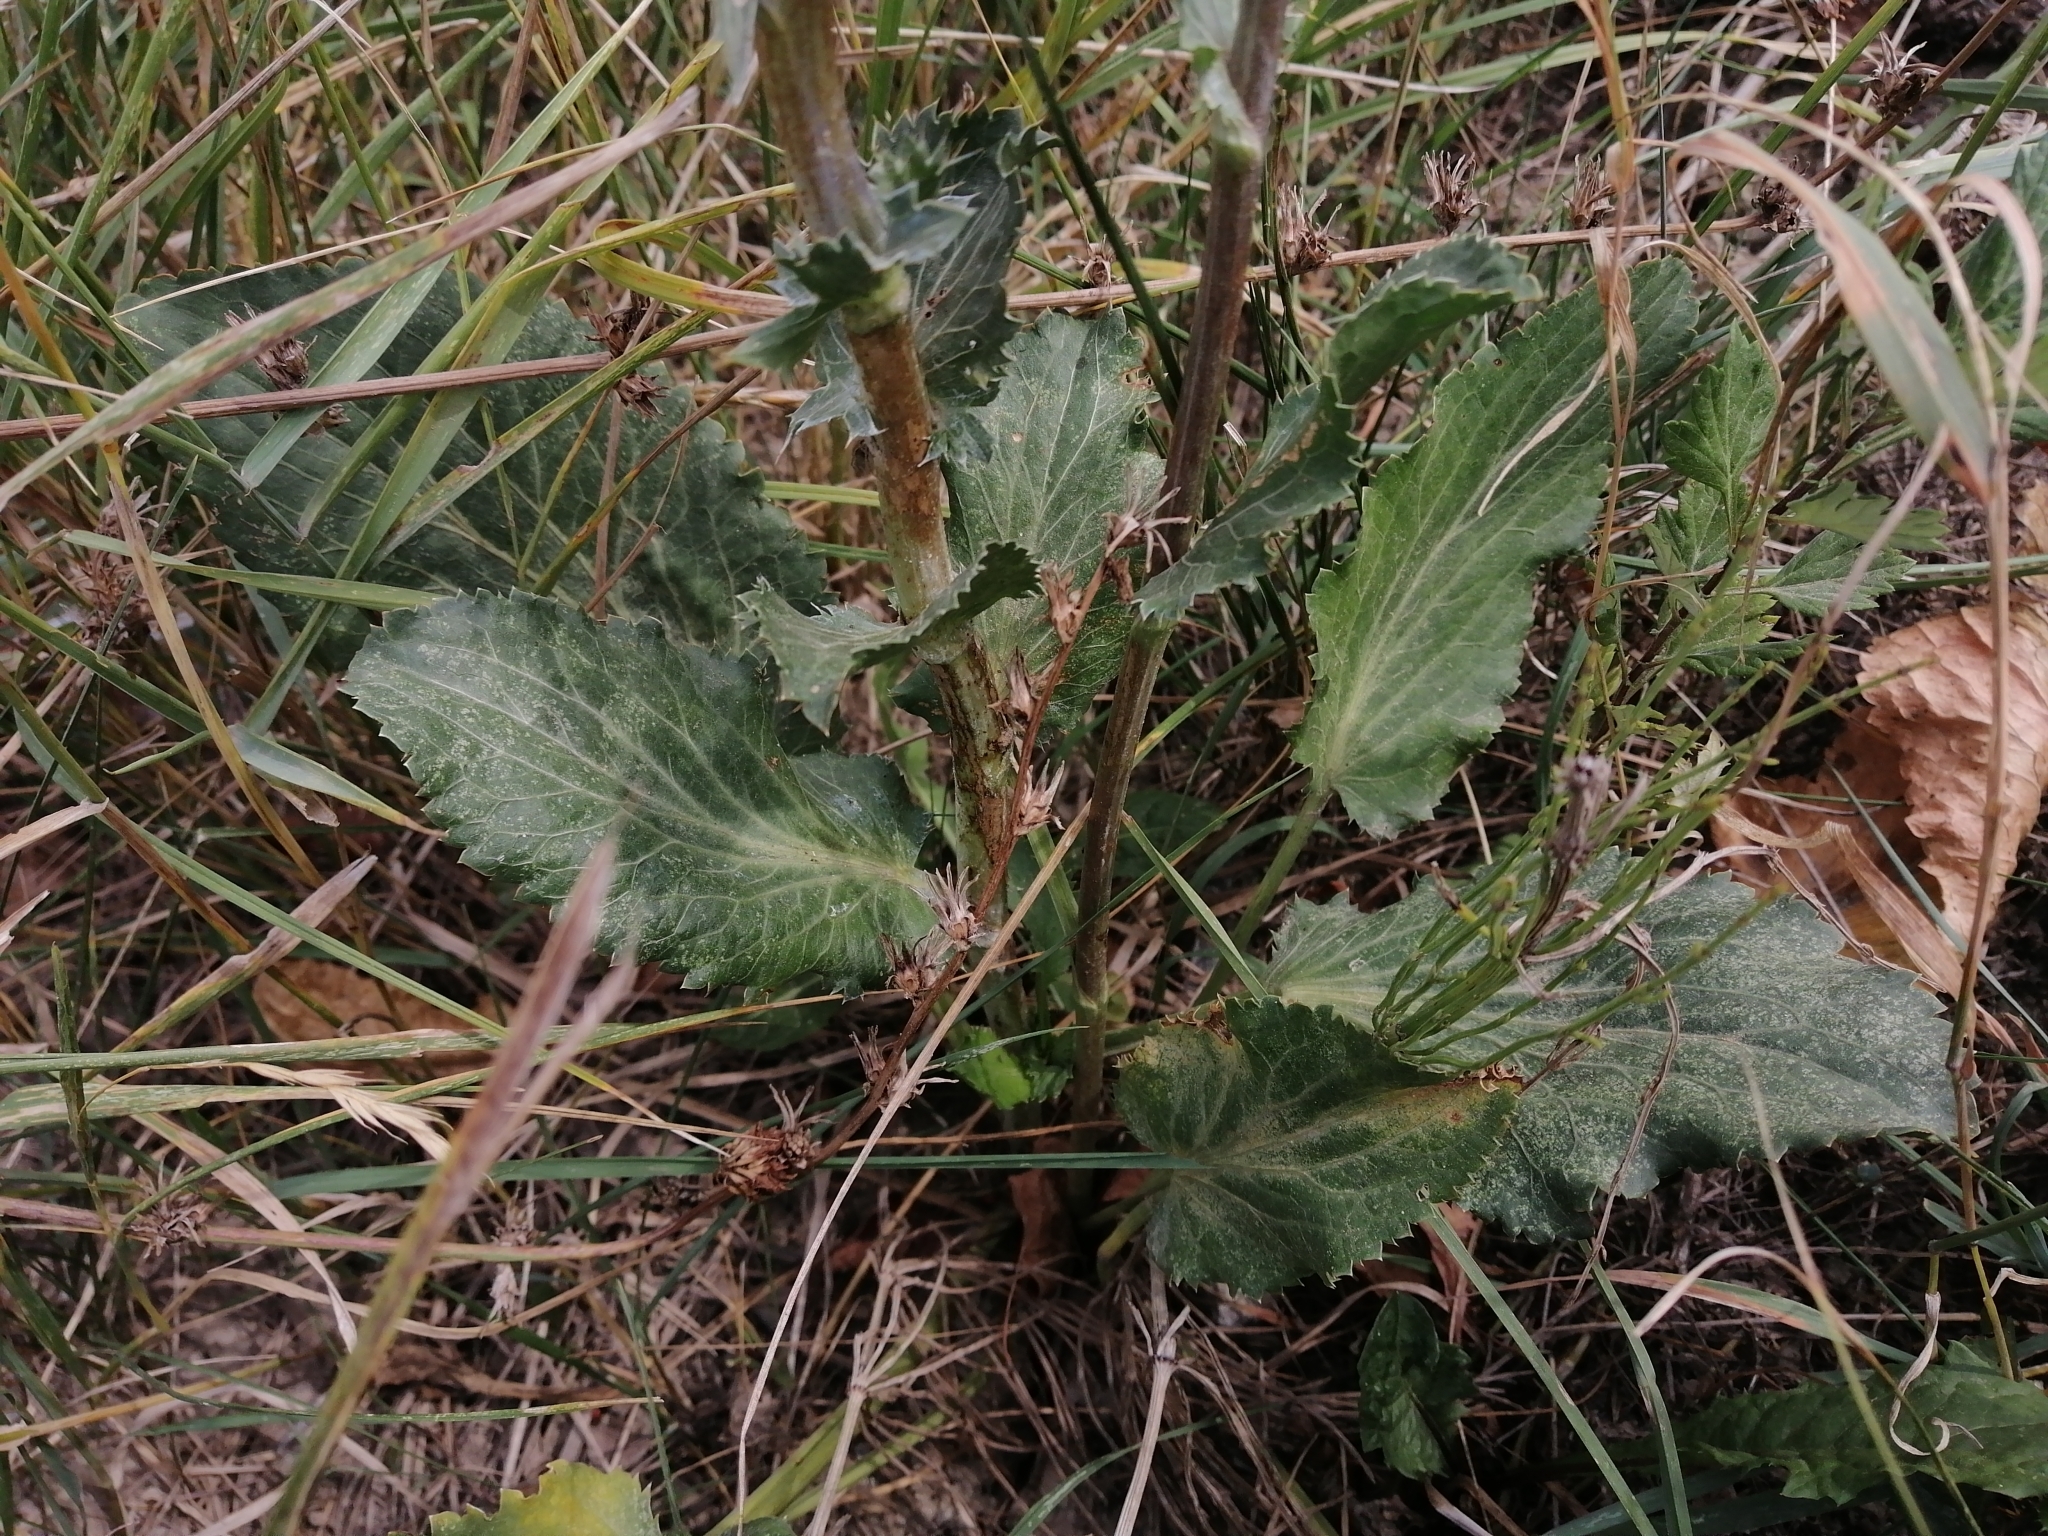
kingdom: Plantae
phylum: Tracheophyta
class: Magnoliopsida
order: Apiales
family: Apiaceae
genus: Eryngium
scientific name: Eryngium planum
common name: Blue eryngo
